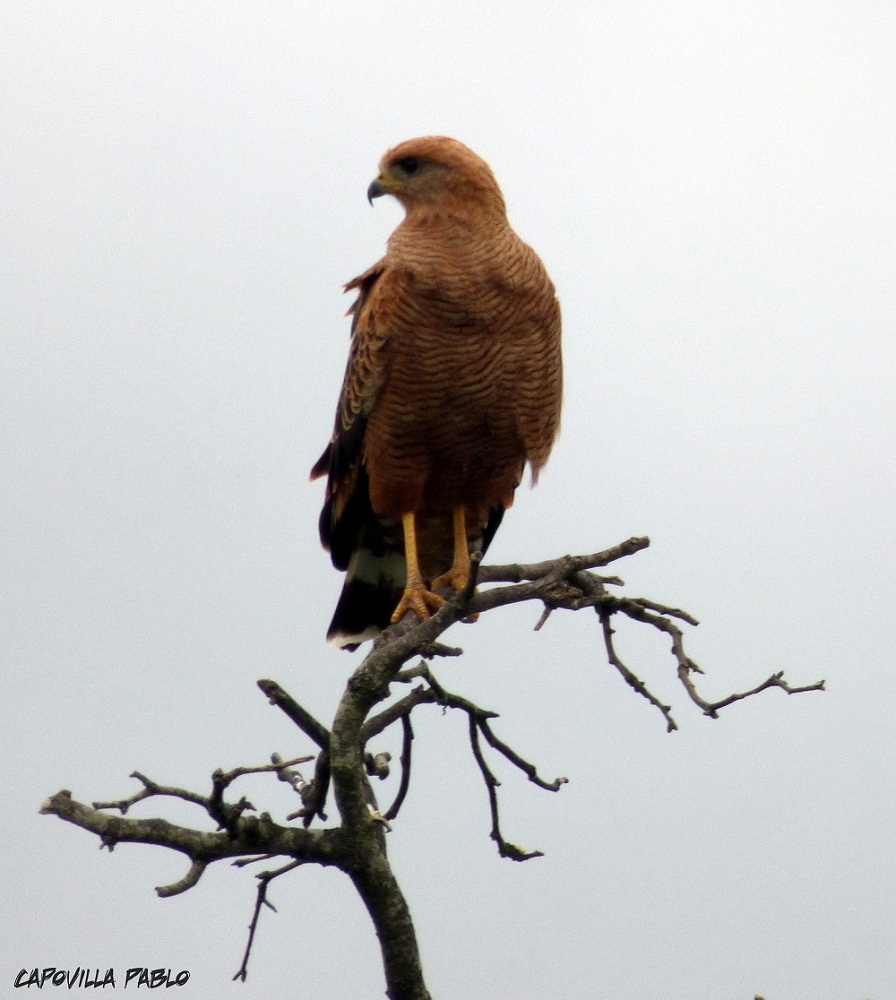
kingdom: Animalia
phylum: Chordata
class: Aves
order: Accipitriformes
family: Accipitridae
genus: Buteogallus
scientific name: Buteogallus meridionalis
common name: Savanna hawk
